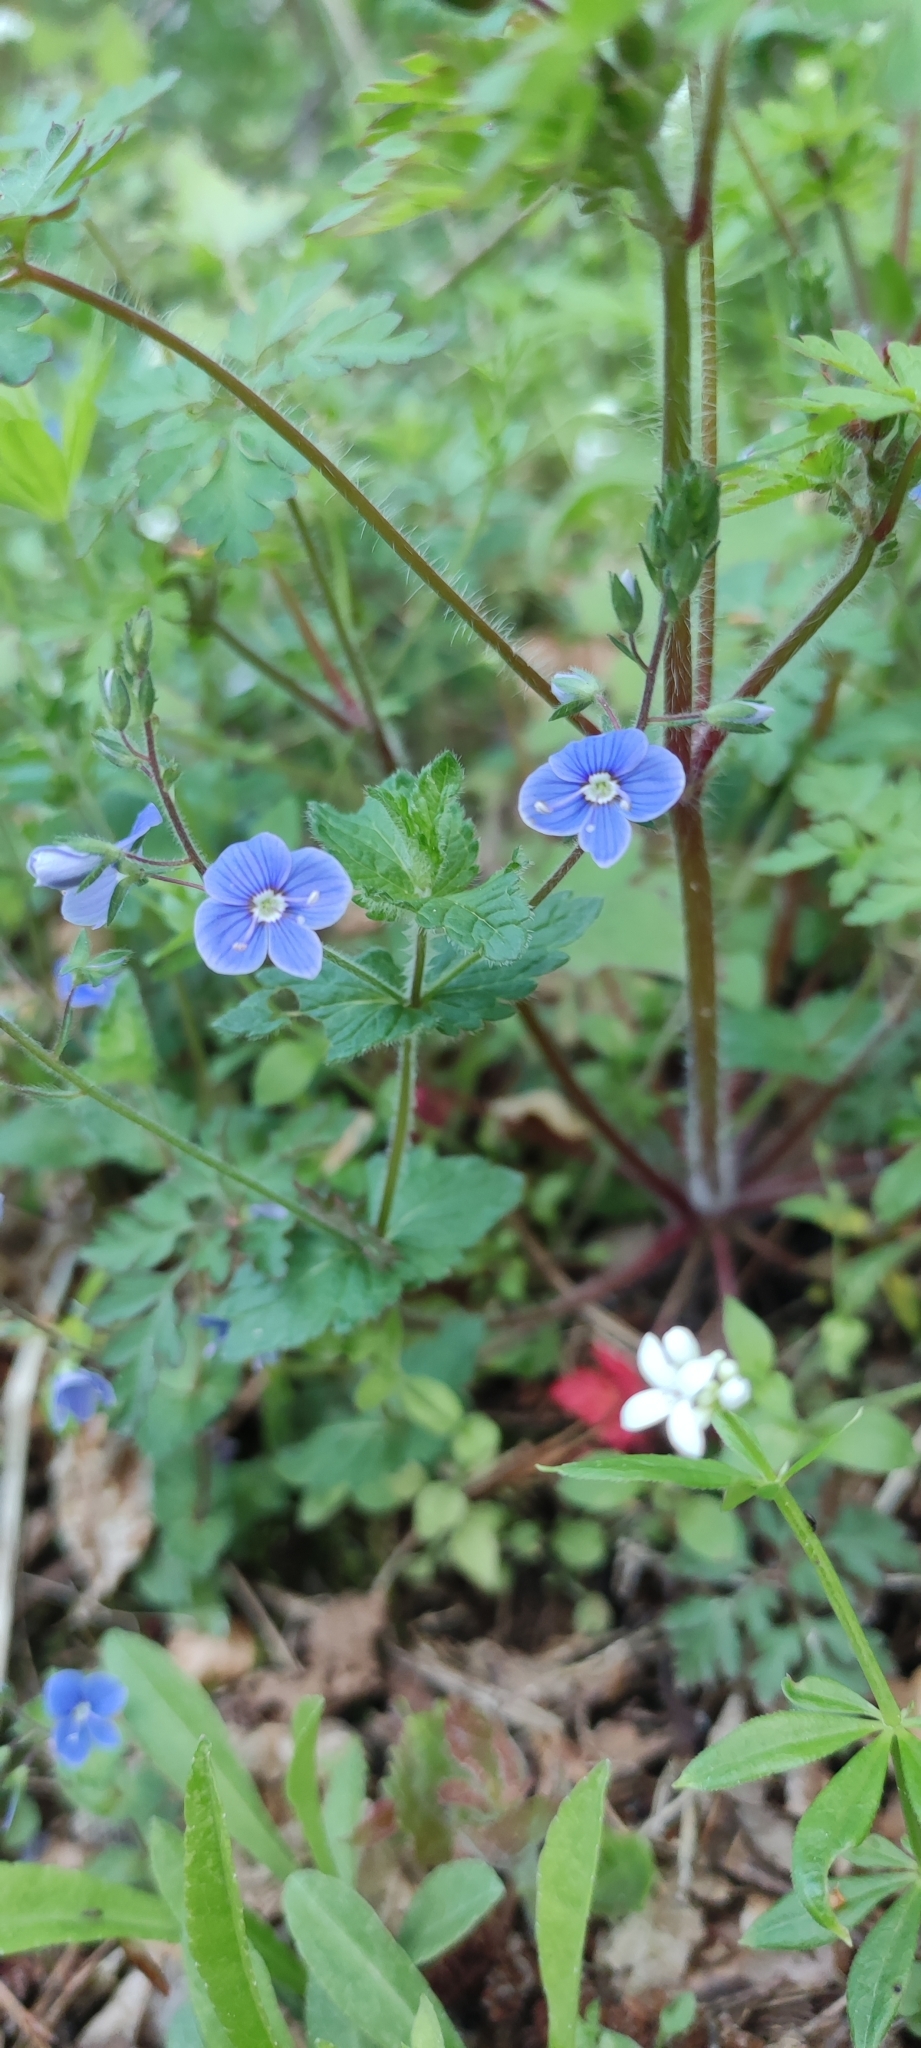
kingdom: Plantae
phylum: Tracheophyta
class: Magnoliopsida
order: Lamiales
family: Plantaginaceae
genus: Veronica
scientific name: Veronica chamaedrys
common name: Germander speedwell
